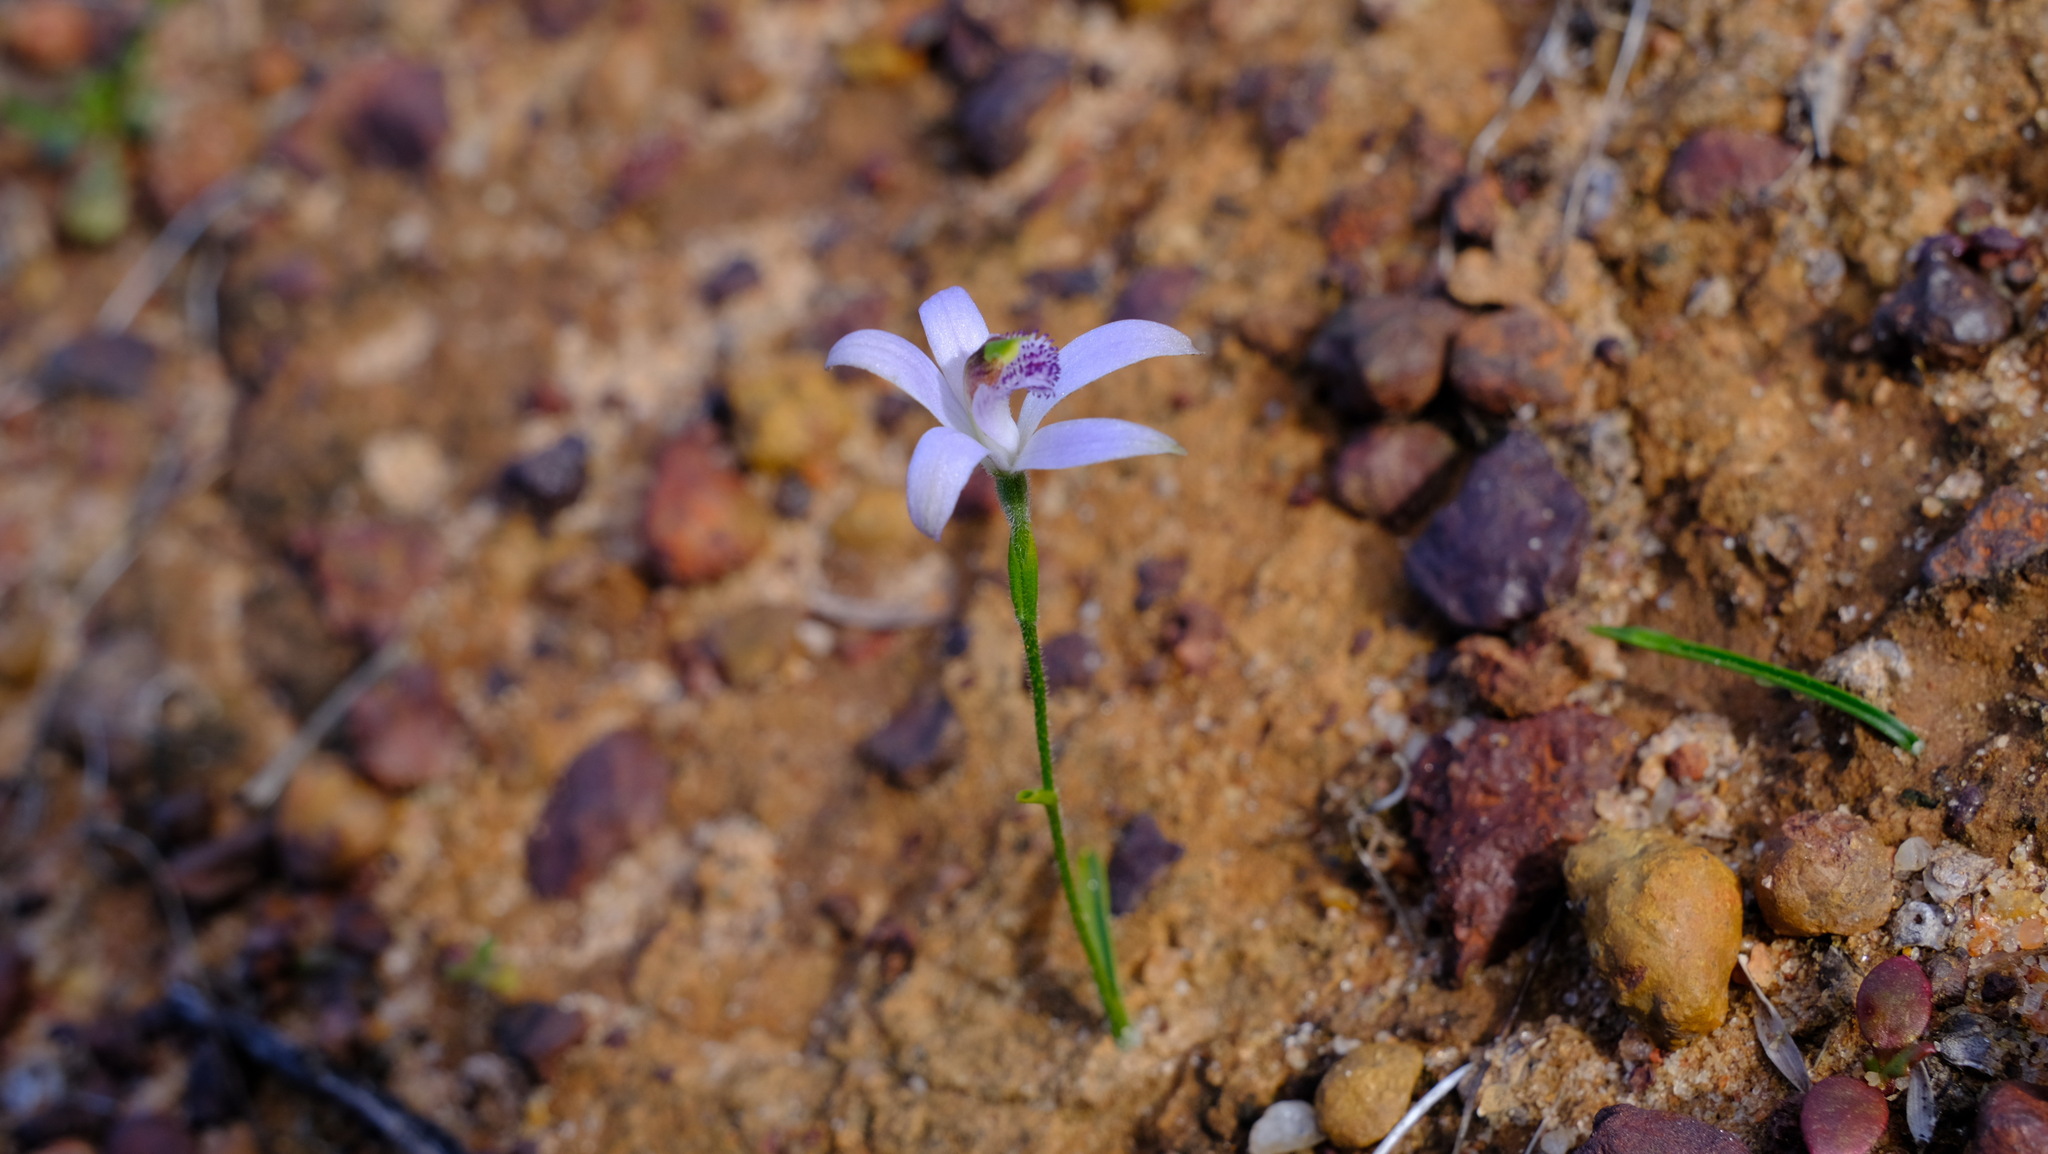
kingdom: Plantae
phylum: Tracheophyta
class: Liliopsida
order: Asparagales
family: Orchidaceae
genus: Pheladenia
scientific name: Pheladenia deformis
